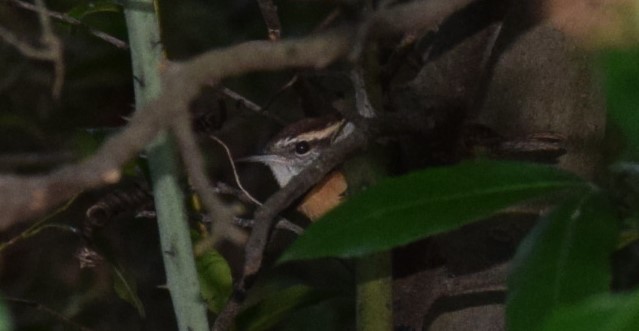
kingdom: Animalia
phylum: Chordata
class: Aves
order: Passeriformes
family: Troglodytidae
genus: Thryothorus
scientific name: Thryothorus ludovicianus
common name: Carolina wren
